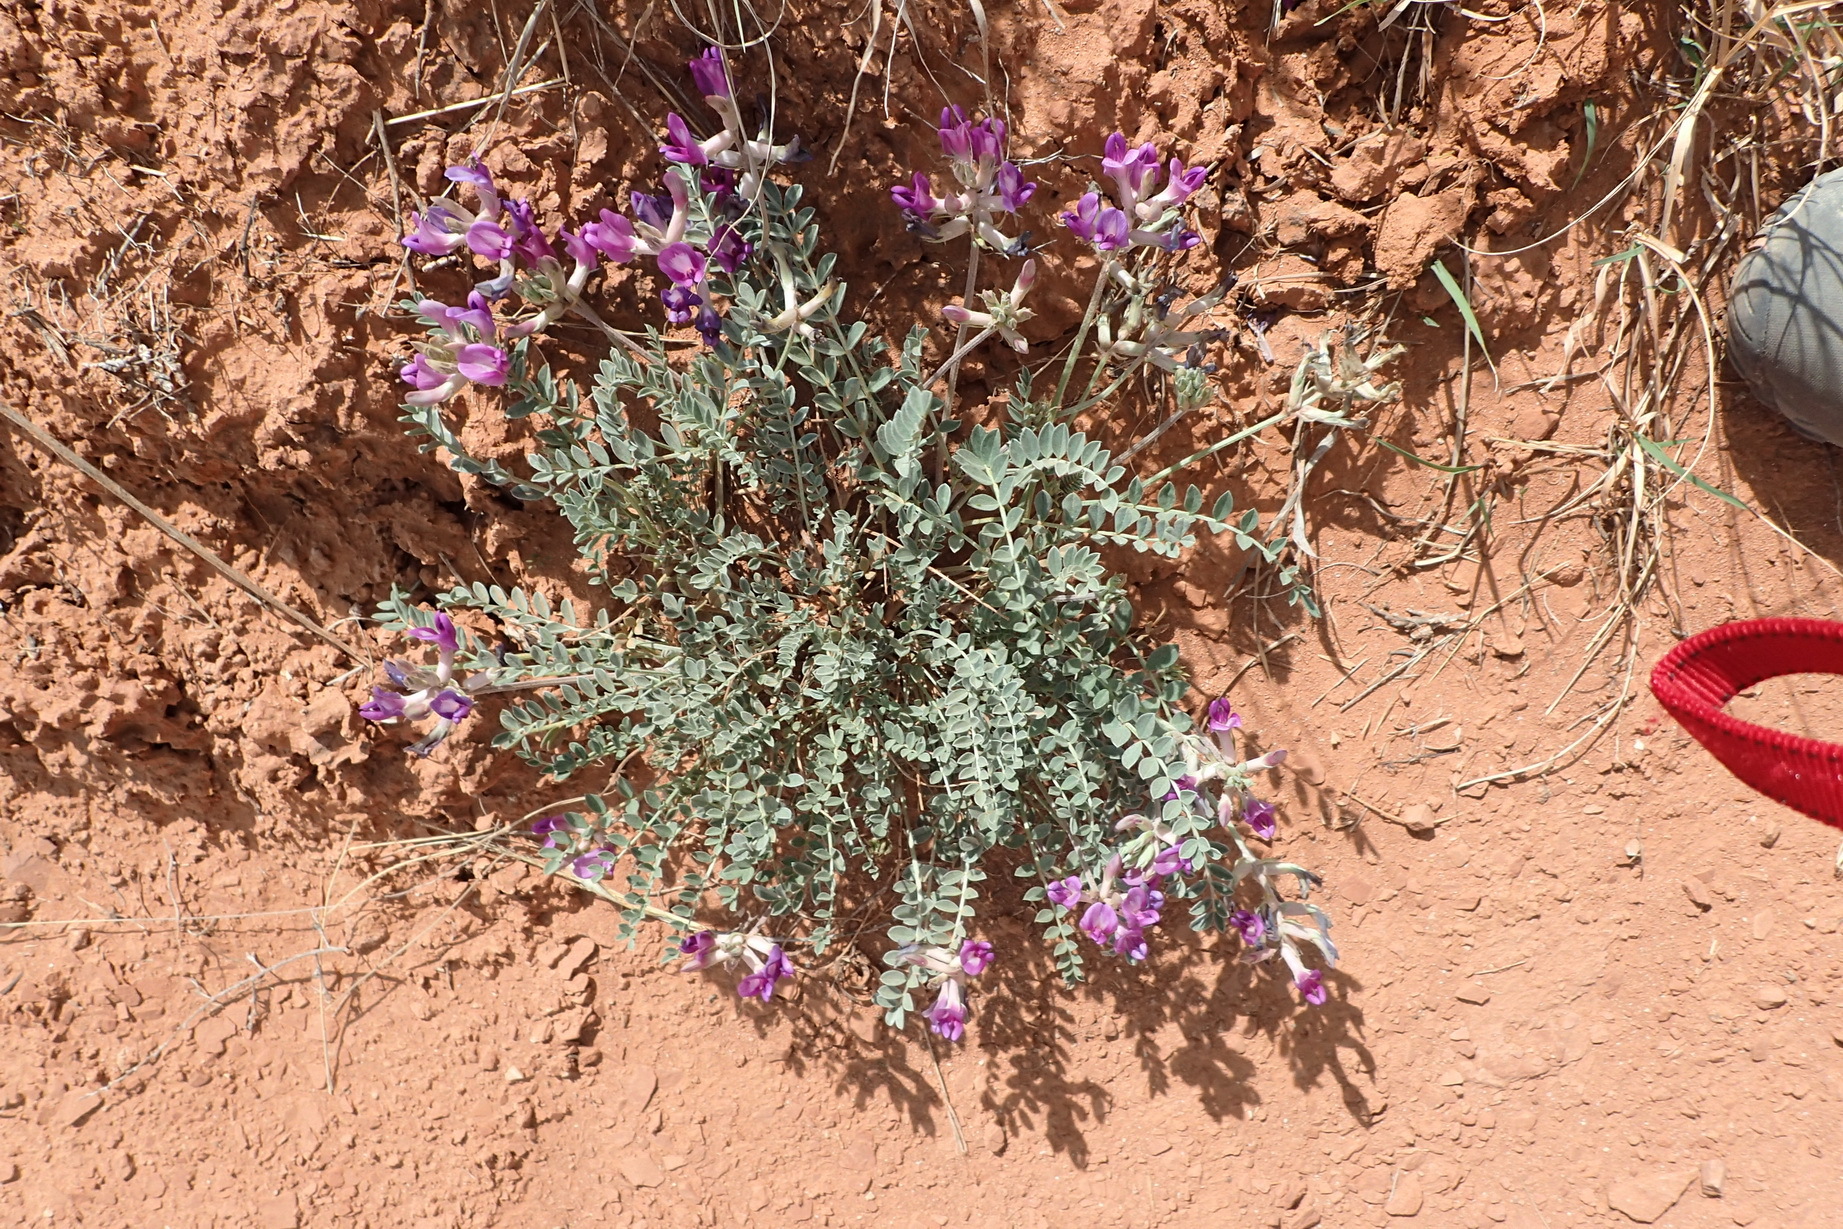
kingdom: Plantae
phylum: Tracheophyta
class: Magnoliopsida
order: Fabales
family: Fabaceae
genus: Astragalus
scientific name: Astragalus missouriensis
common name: Missouri milk-vetch
